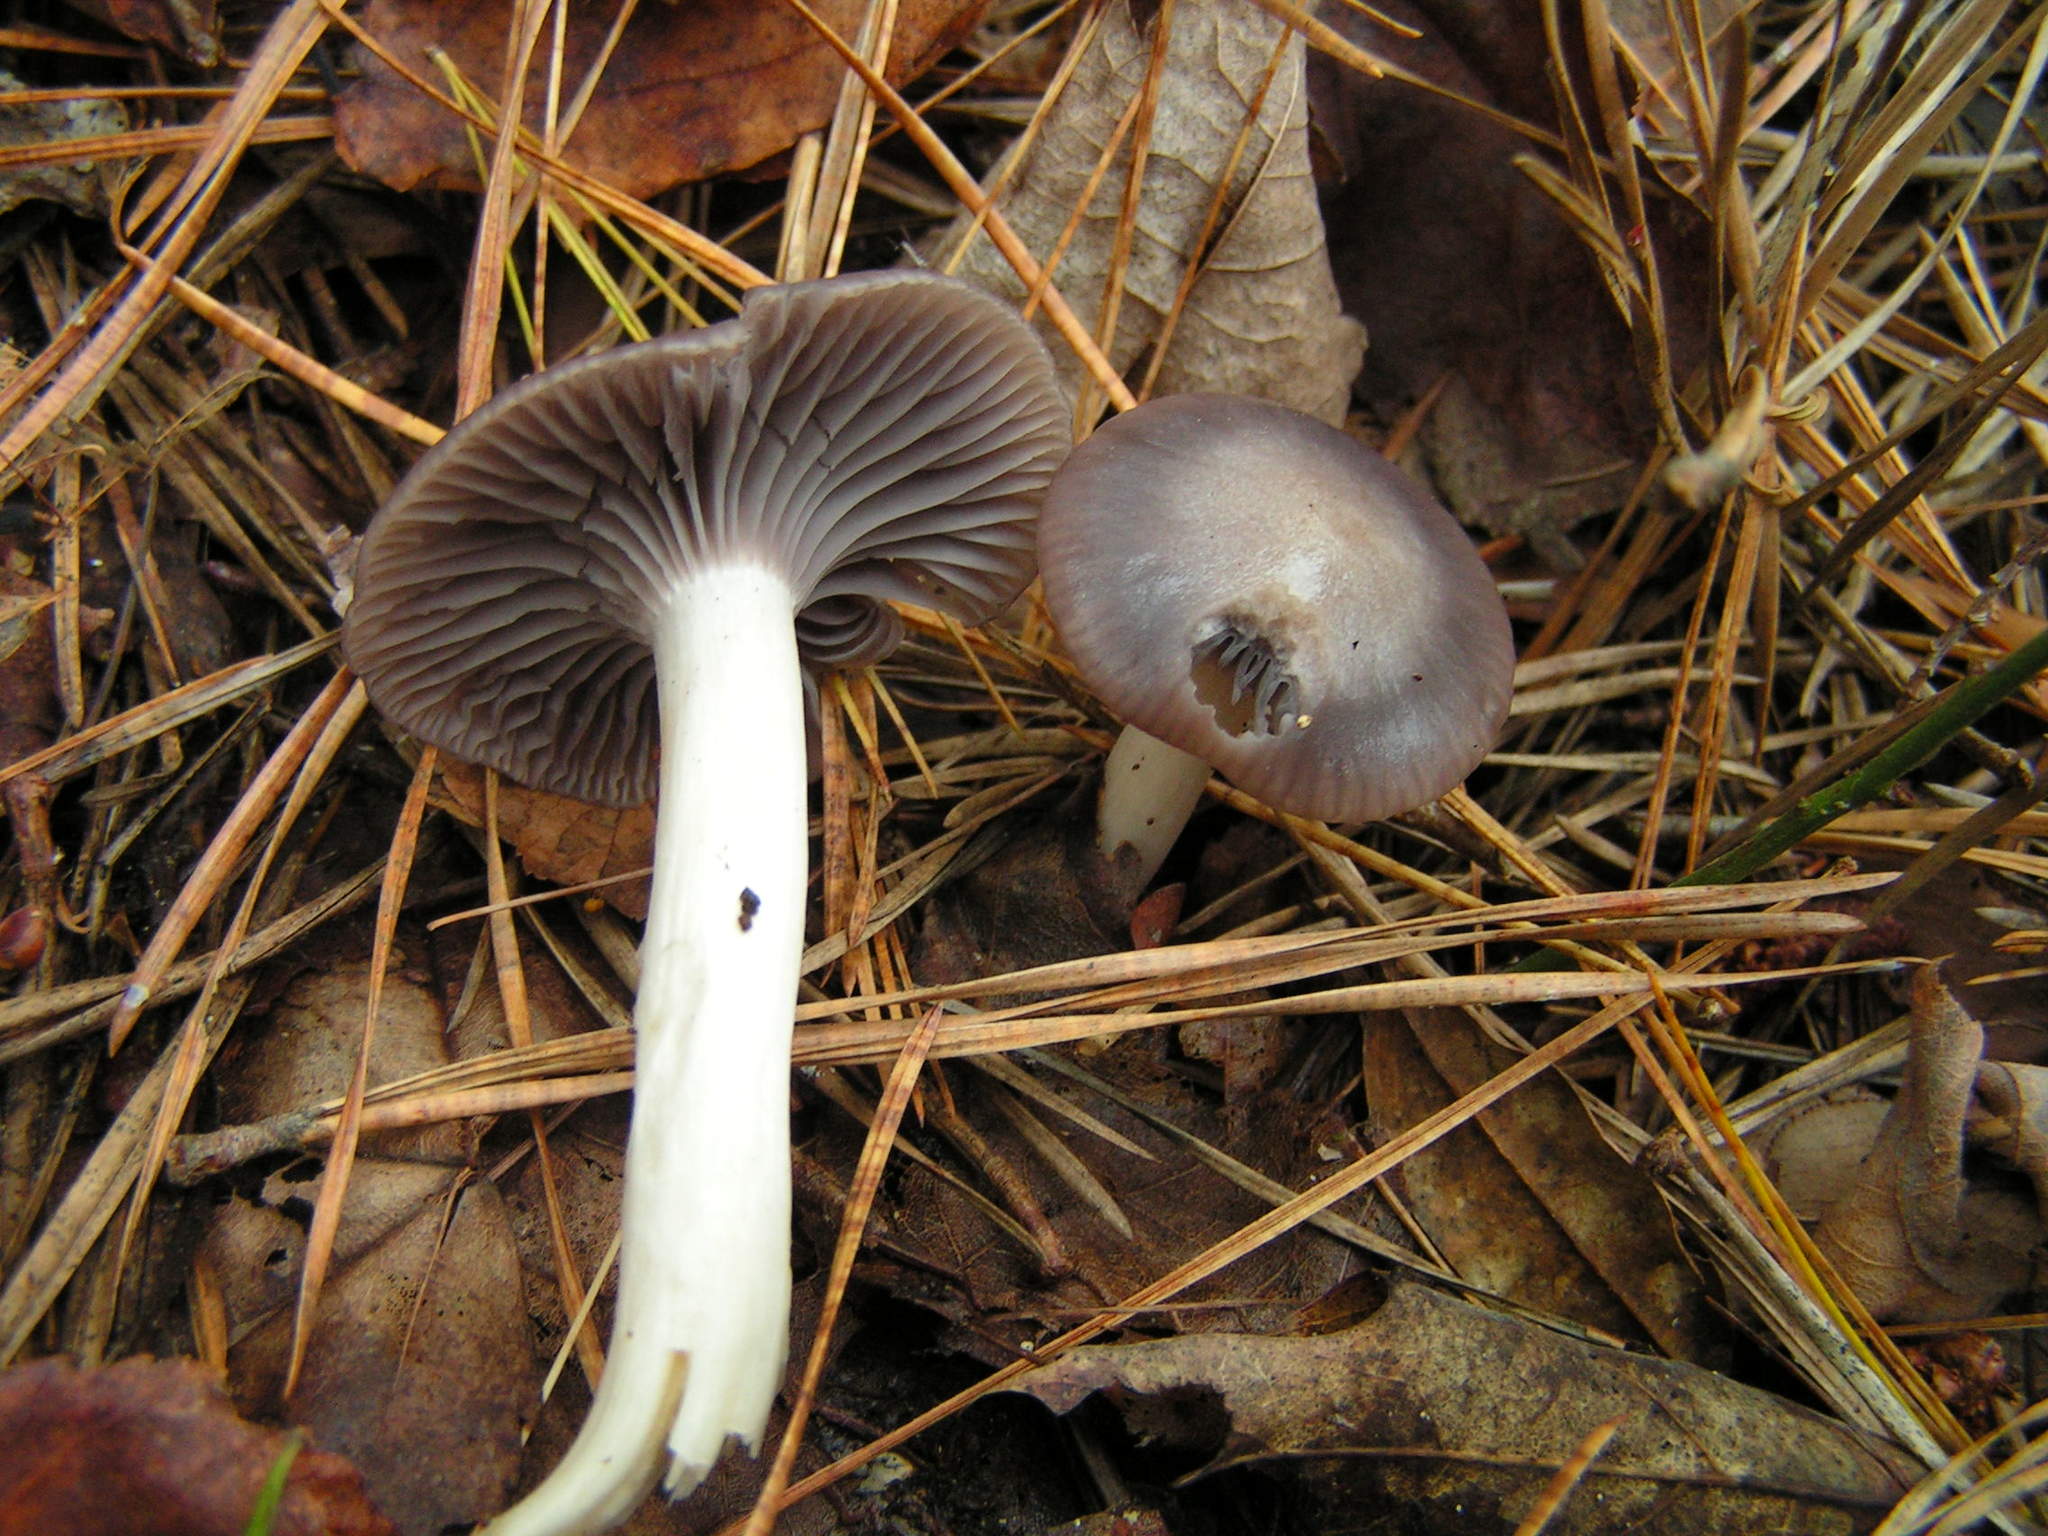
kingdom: Fungi
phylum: Basidiomycota
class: Agaricomycetes
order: Agaricales
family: Hygrophoraceae
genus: Cuphophyllus
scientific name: Cuphophyllus lacmus
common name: Grey waxcap
